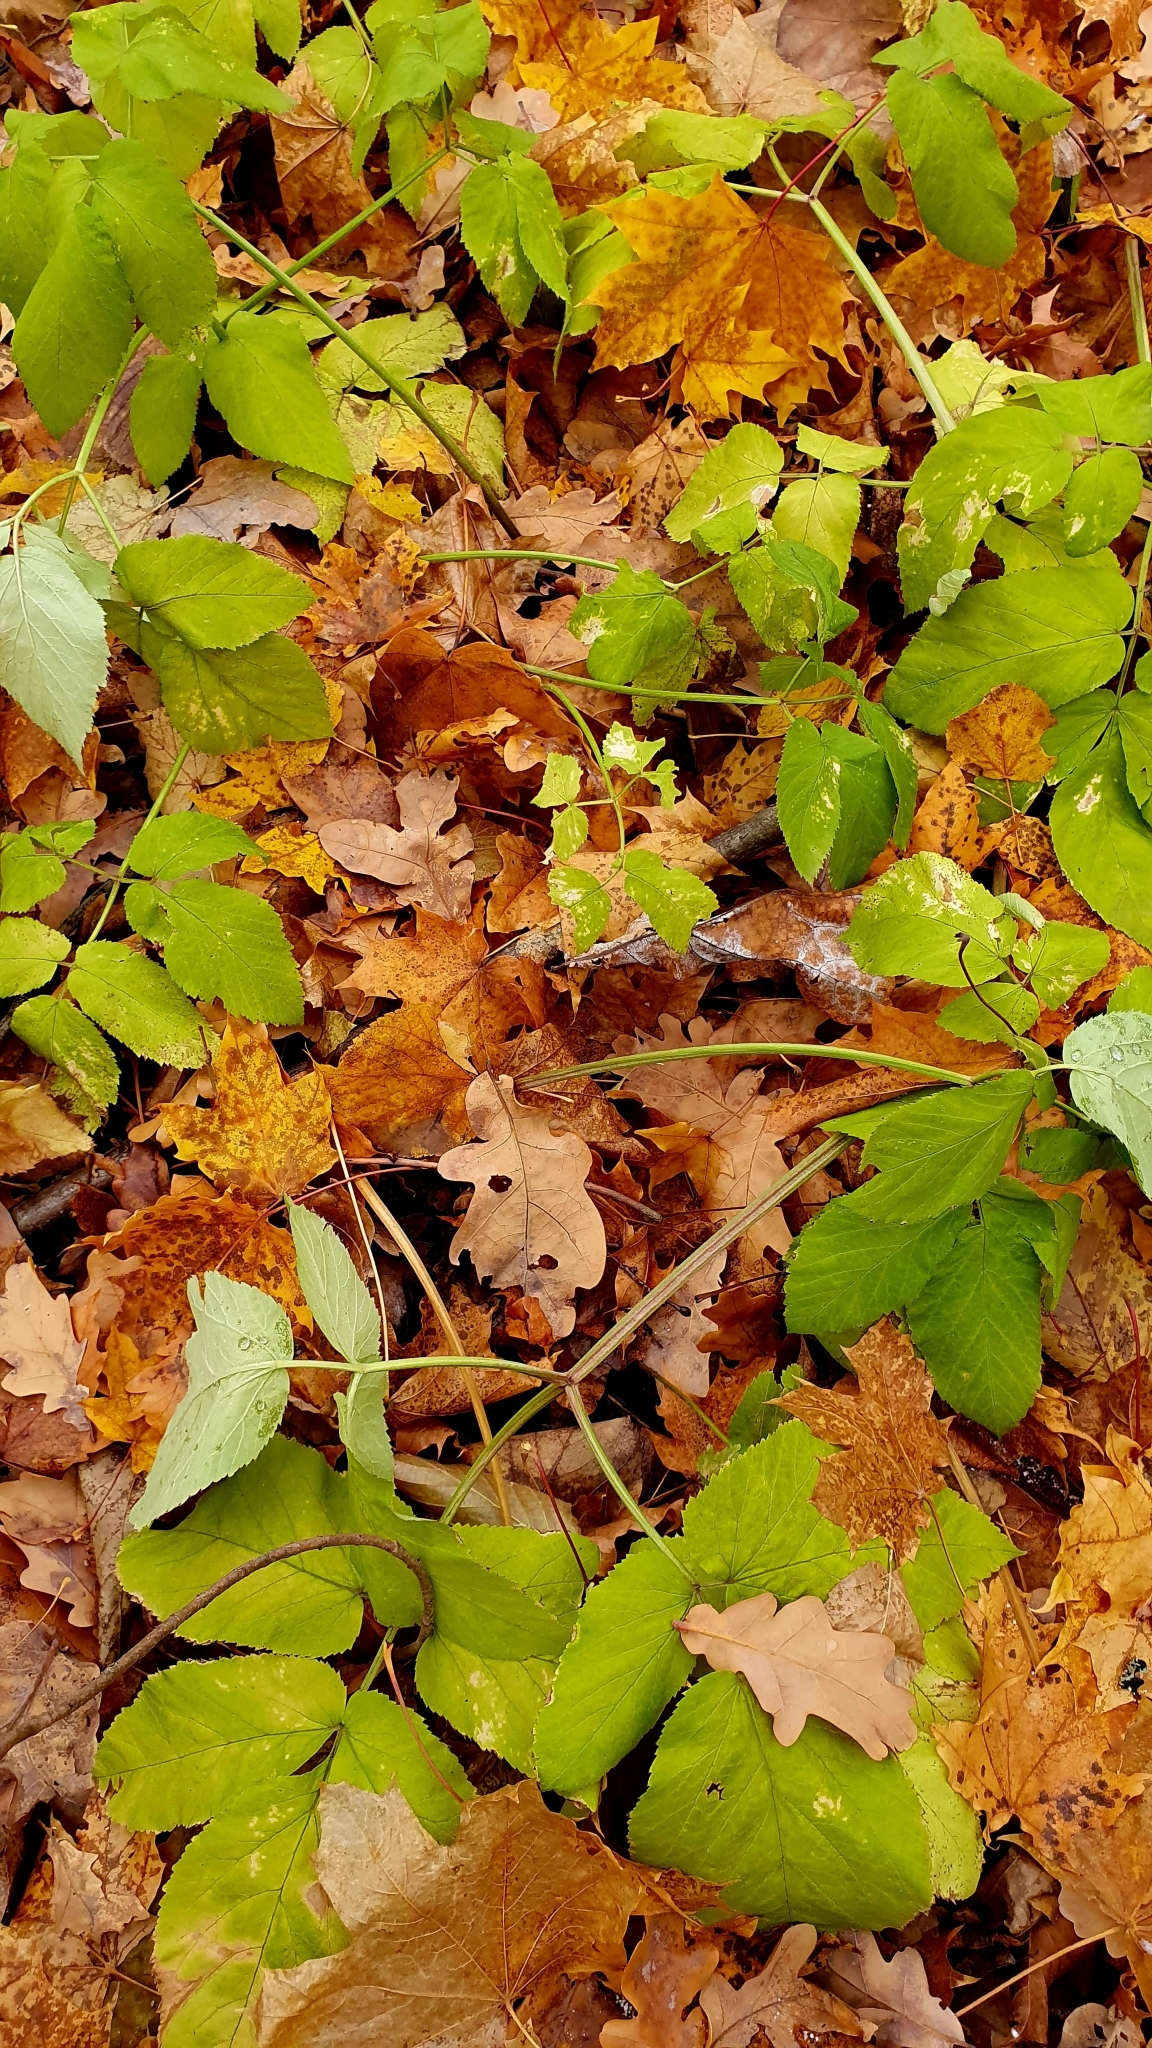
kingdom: Plantae
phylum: Tracheophyta
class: Magnoliopsida
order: Apiales
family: Apiaceae
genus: Aegopodium
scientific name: Aegopodium podagraria
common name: Ground-elder
